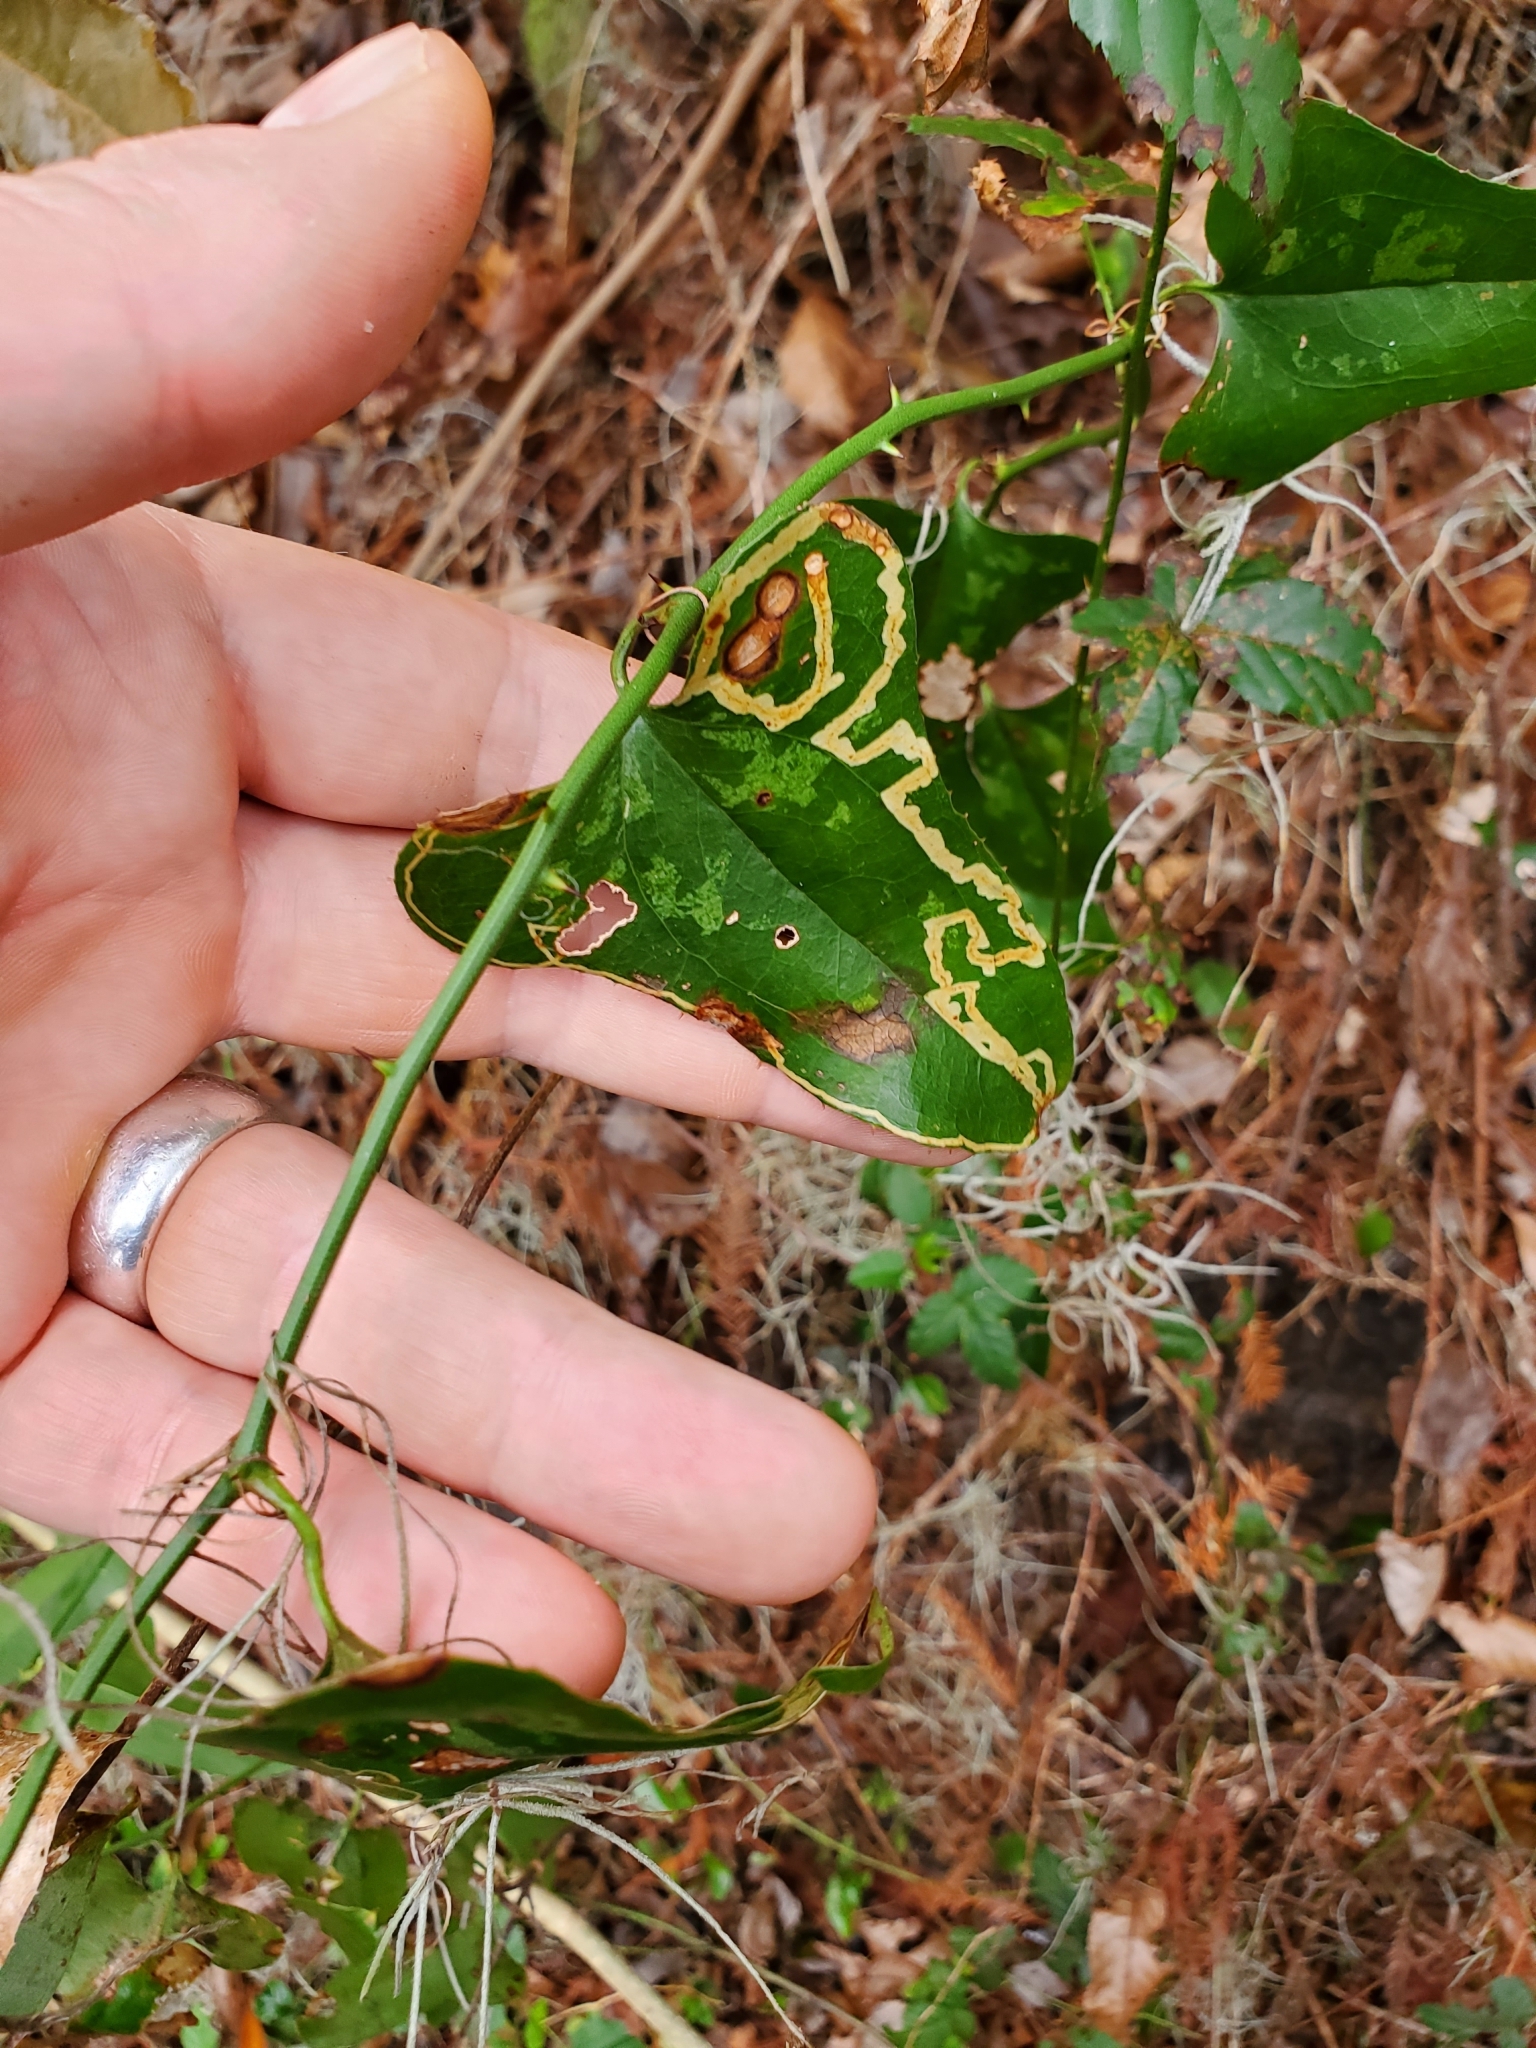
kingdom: Animalia
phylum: Arthropoda
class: Insecta
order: Lepidoptera
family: Gracillariidae
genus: Marmara
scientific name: Marmara smilacisella
